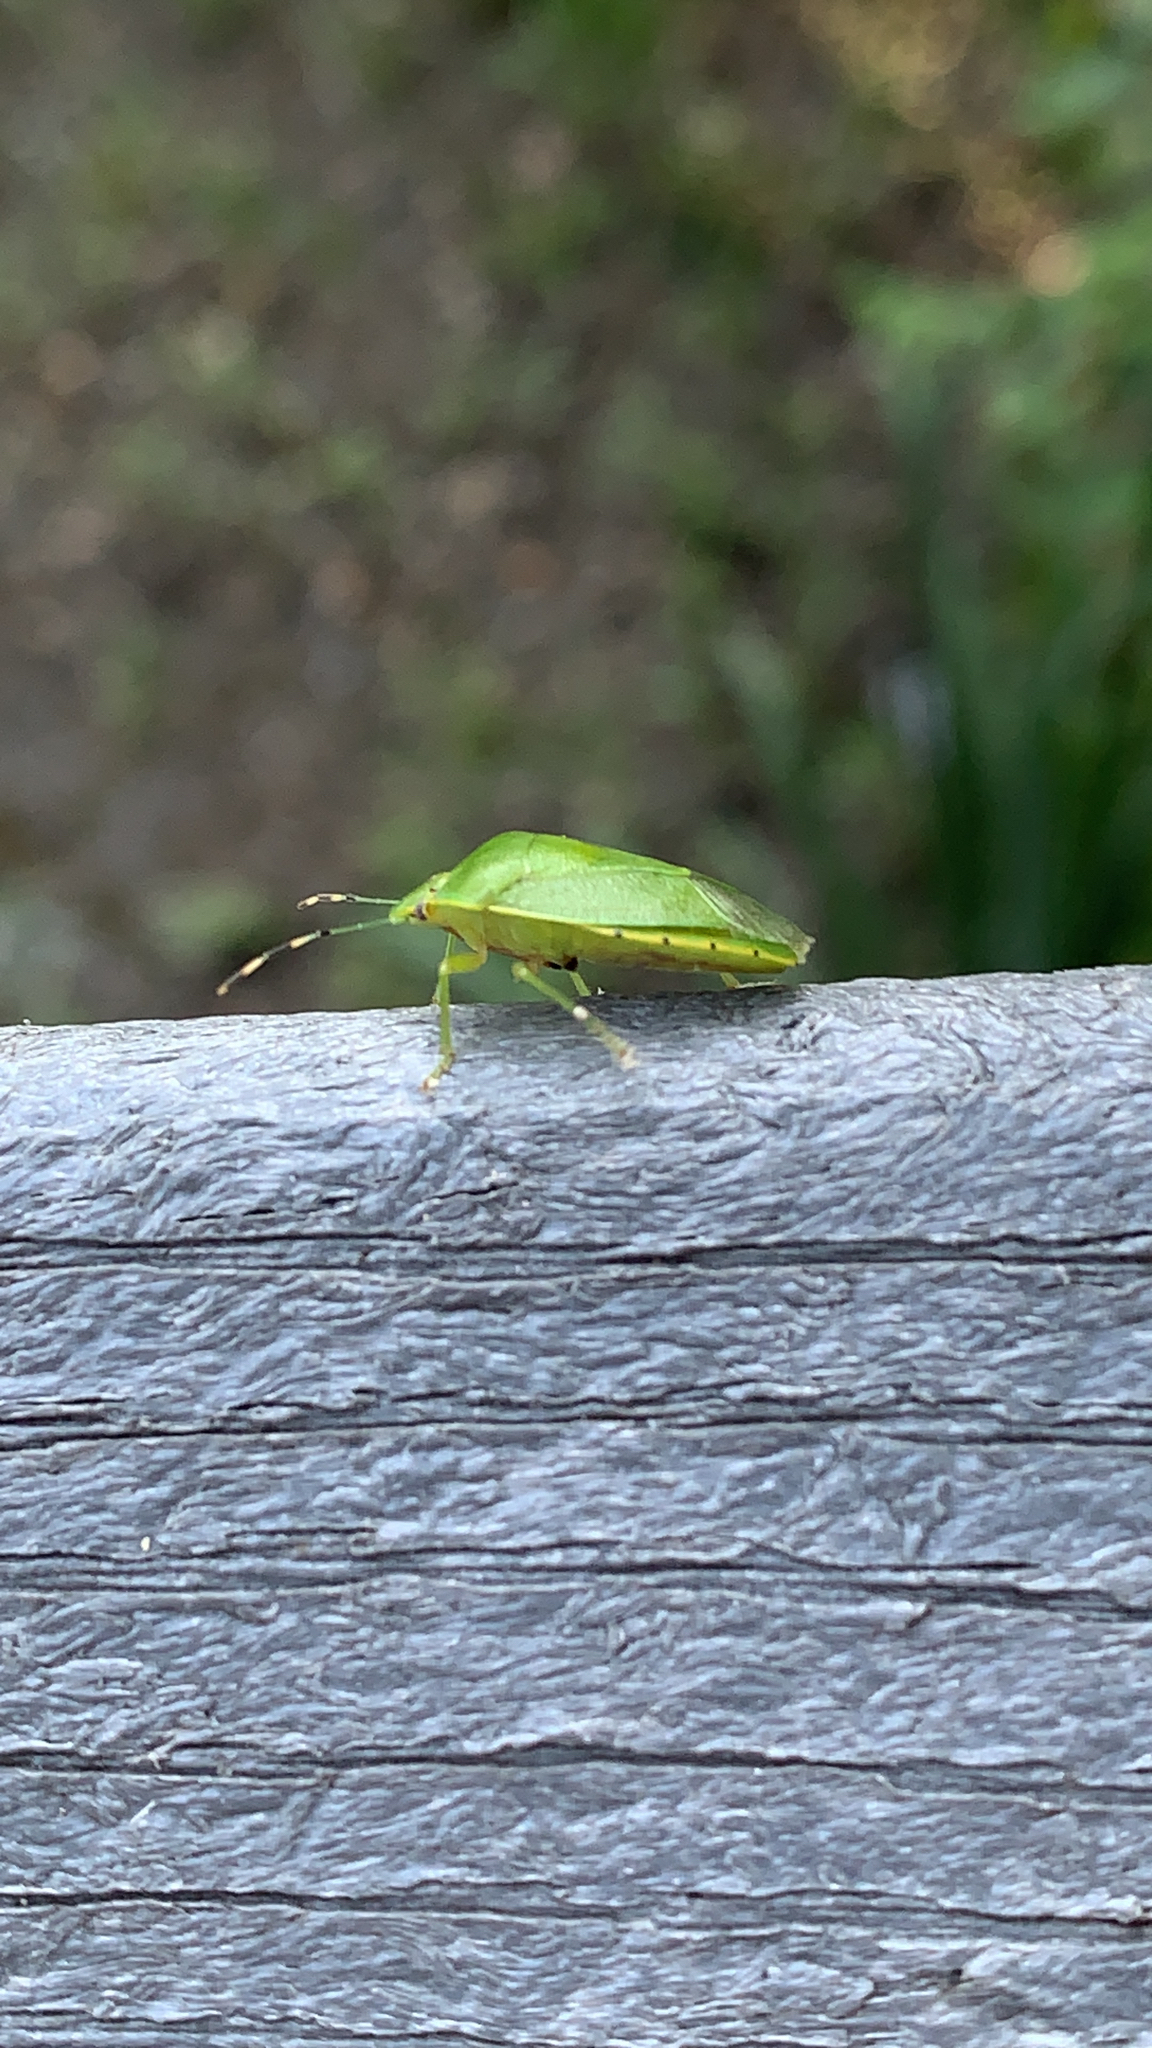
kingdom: Animalia
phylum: Arthropoda
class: Insecta
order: Hemiptera
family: Pentatomidae
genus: Chinavia
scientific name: Chinavia hilaris
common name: Green stink bug
